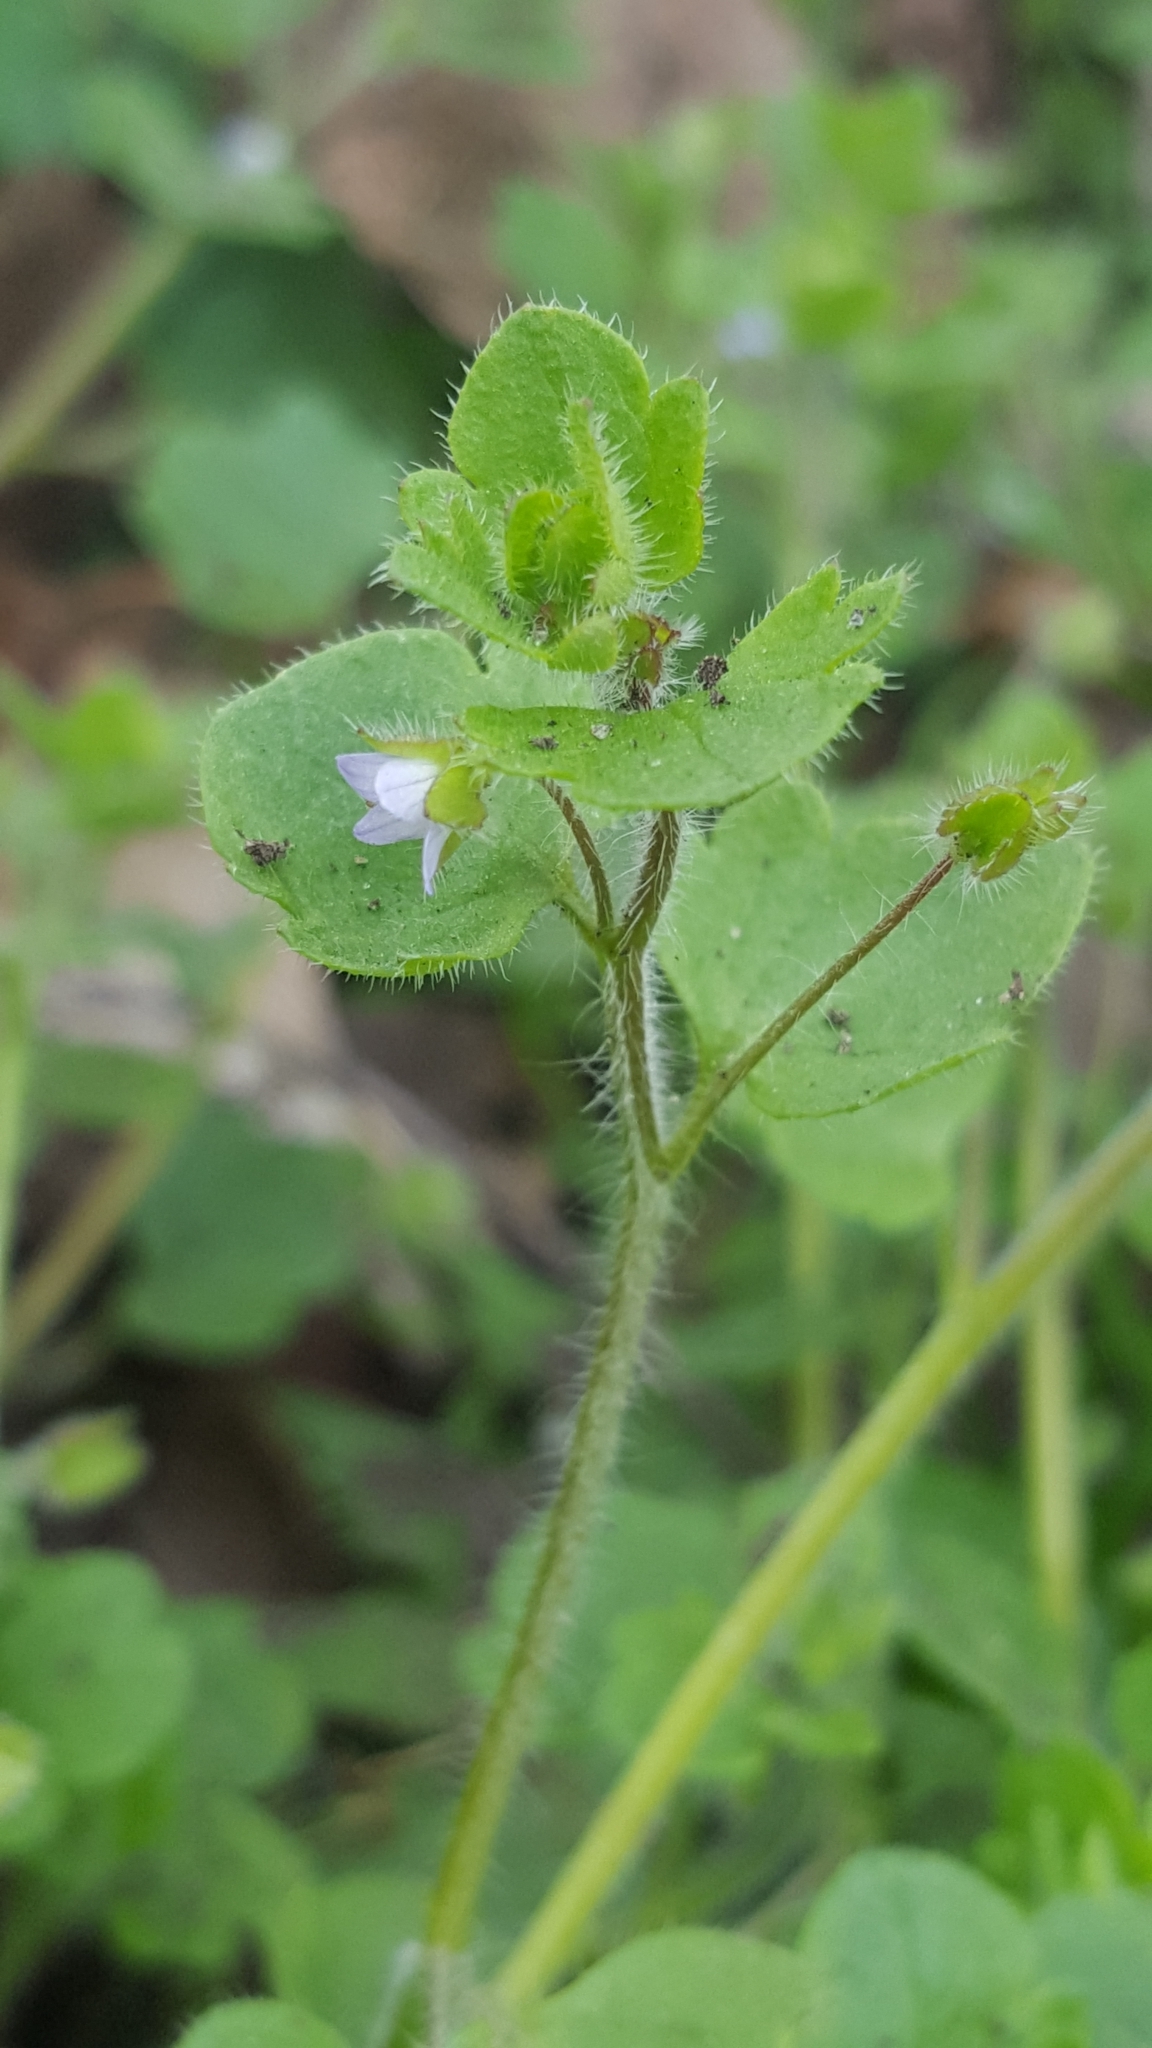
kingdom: Plantae
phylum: Tracheophyta
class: Magnoliopsida
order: Lamiales
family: Plantaginaceae
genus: Veronica
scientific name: Veronica sublobata
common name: False ivy-leaved speedwell
